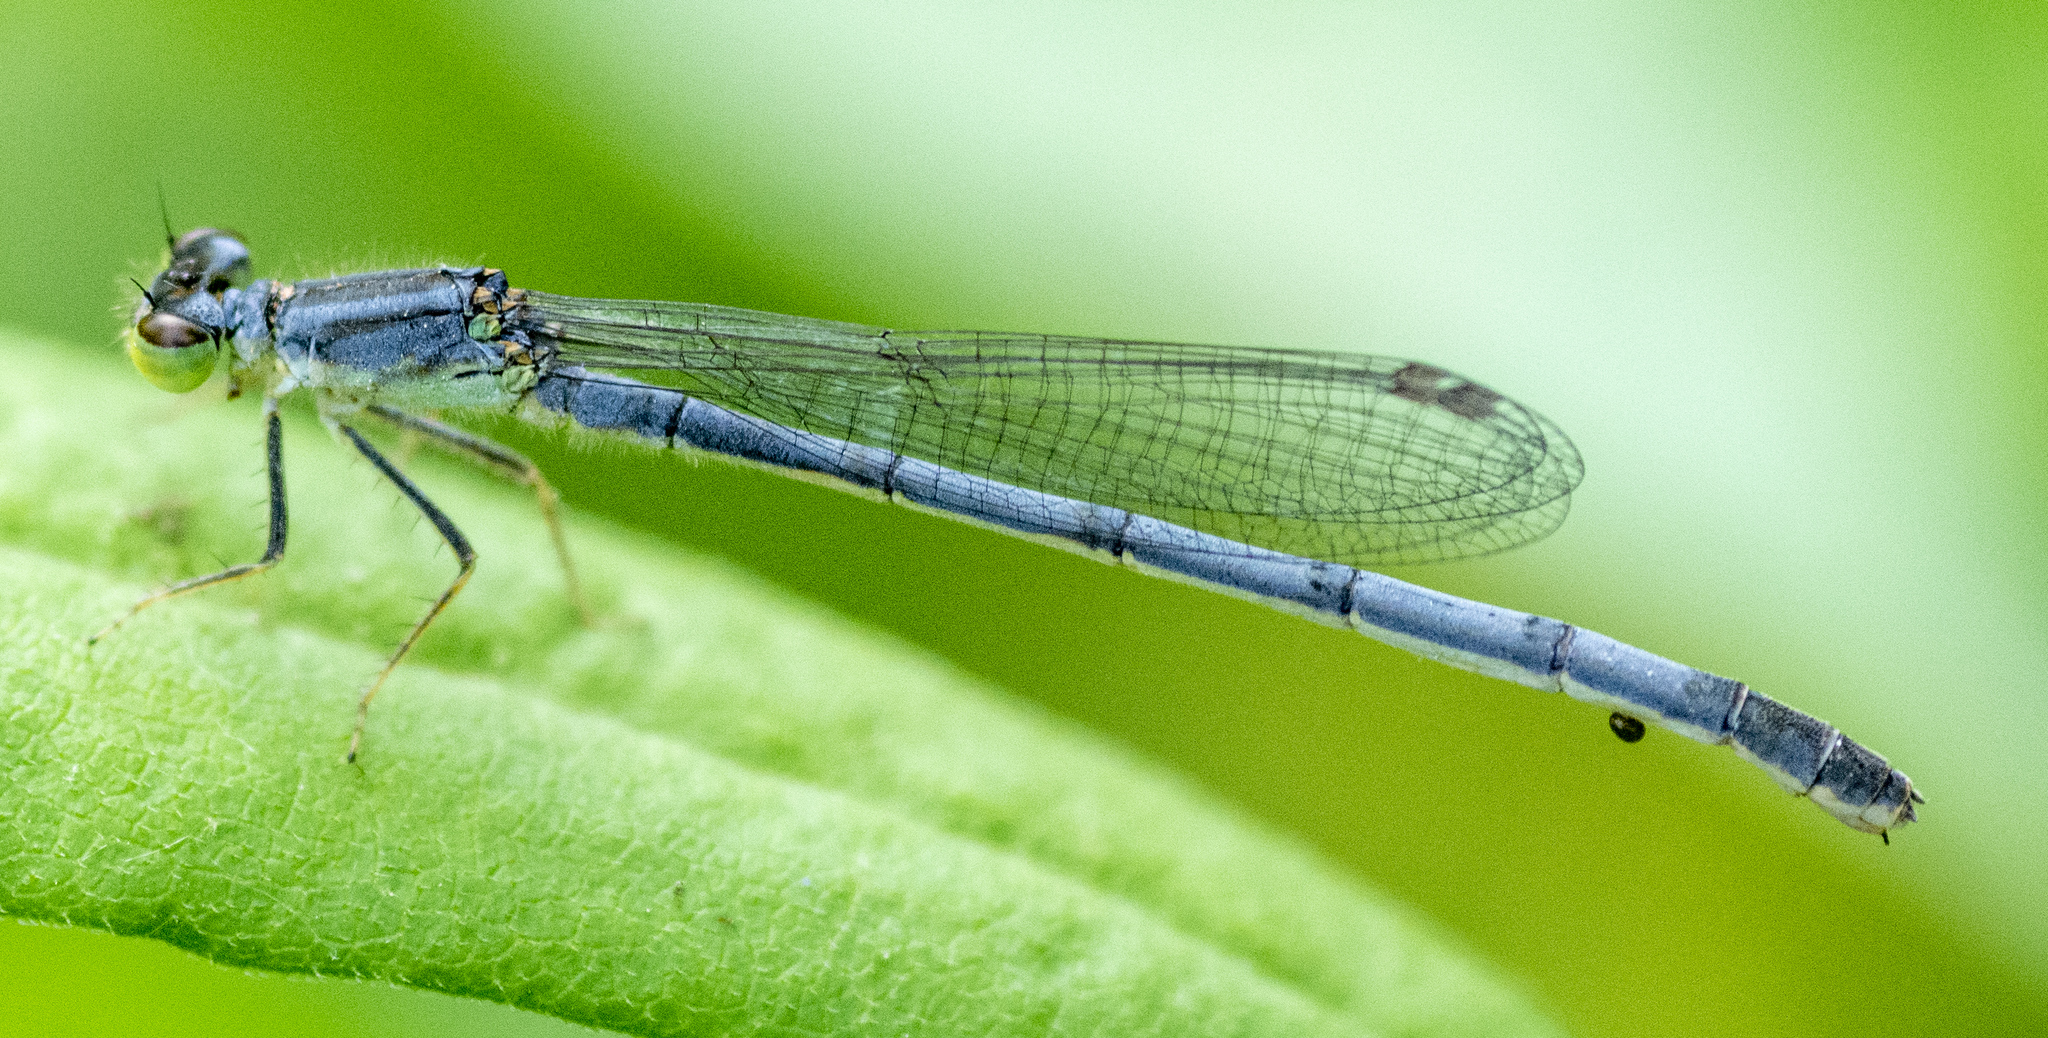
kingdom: Animalia
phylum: Arthropoda
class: Insecta
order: Odonata
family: Coenagrionidae
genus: Ischnura
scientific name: Ischnura verticalis
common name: Eastern forktail
